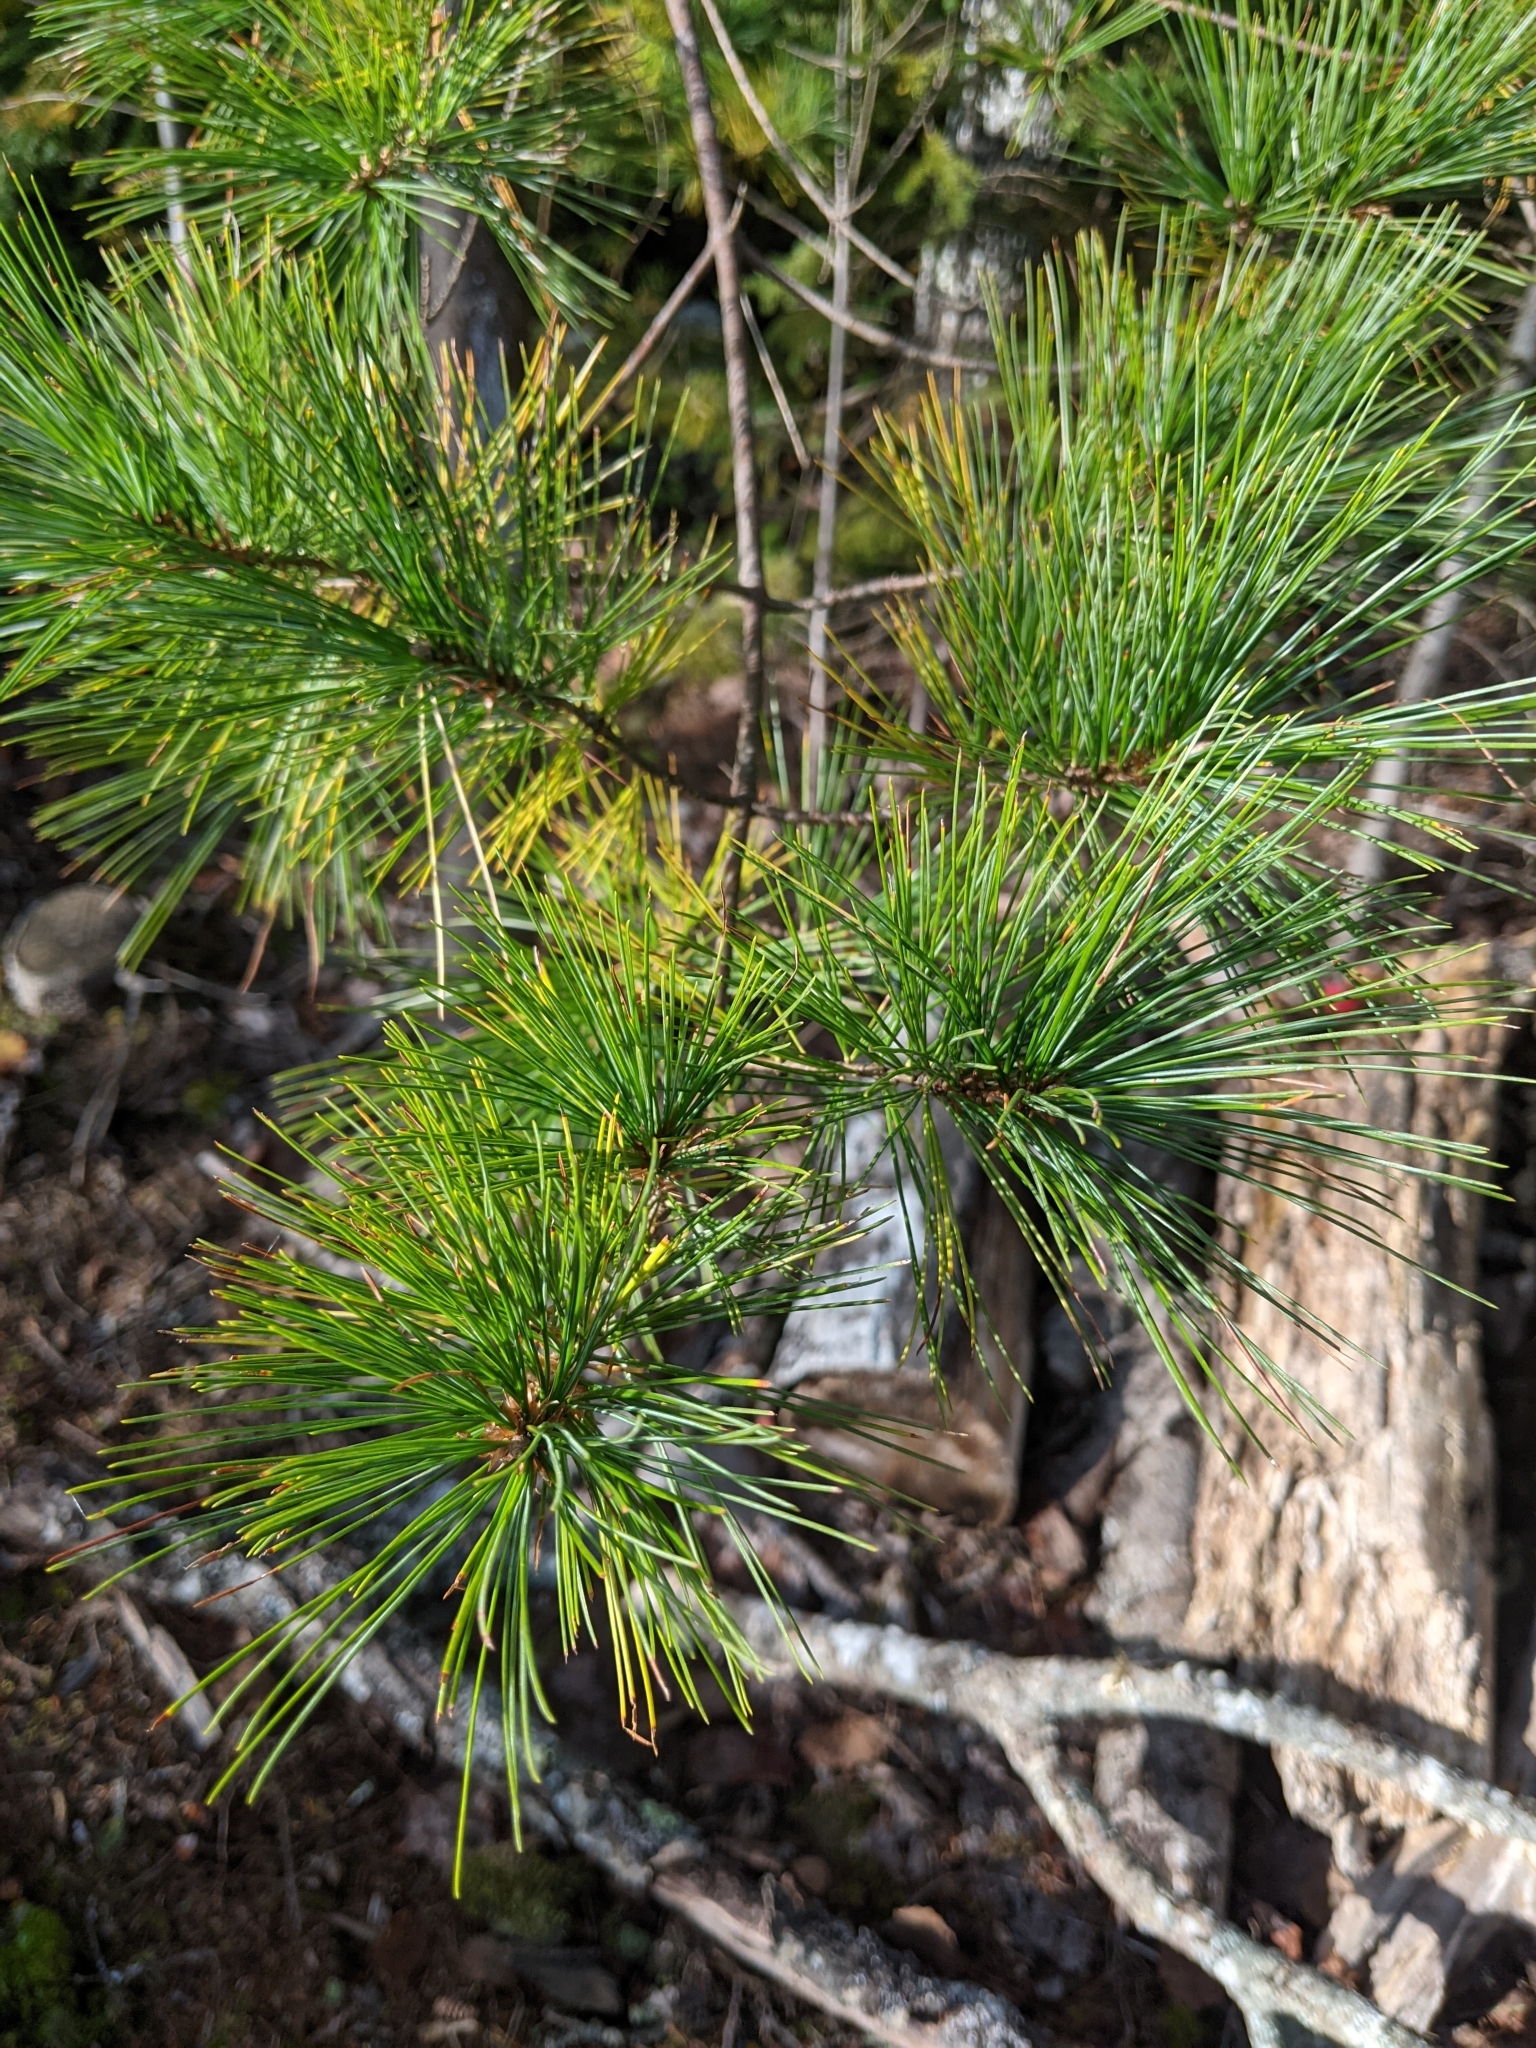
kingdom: Plantae
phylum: Tracheophyta
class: Pinopsida
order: Pinales
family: Pinaceae
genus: Pinus
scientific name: Pinus strobus
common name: Weymouth pine
